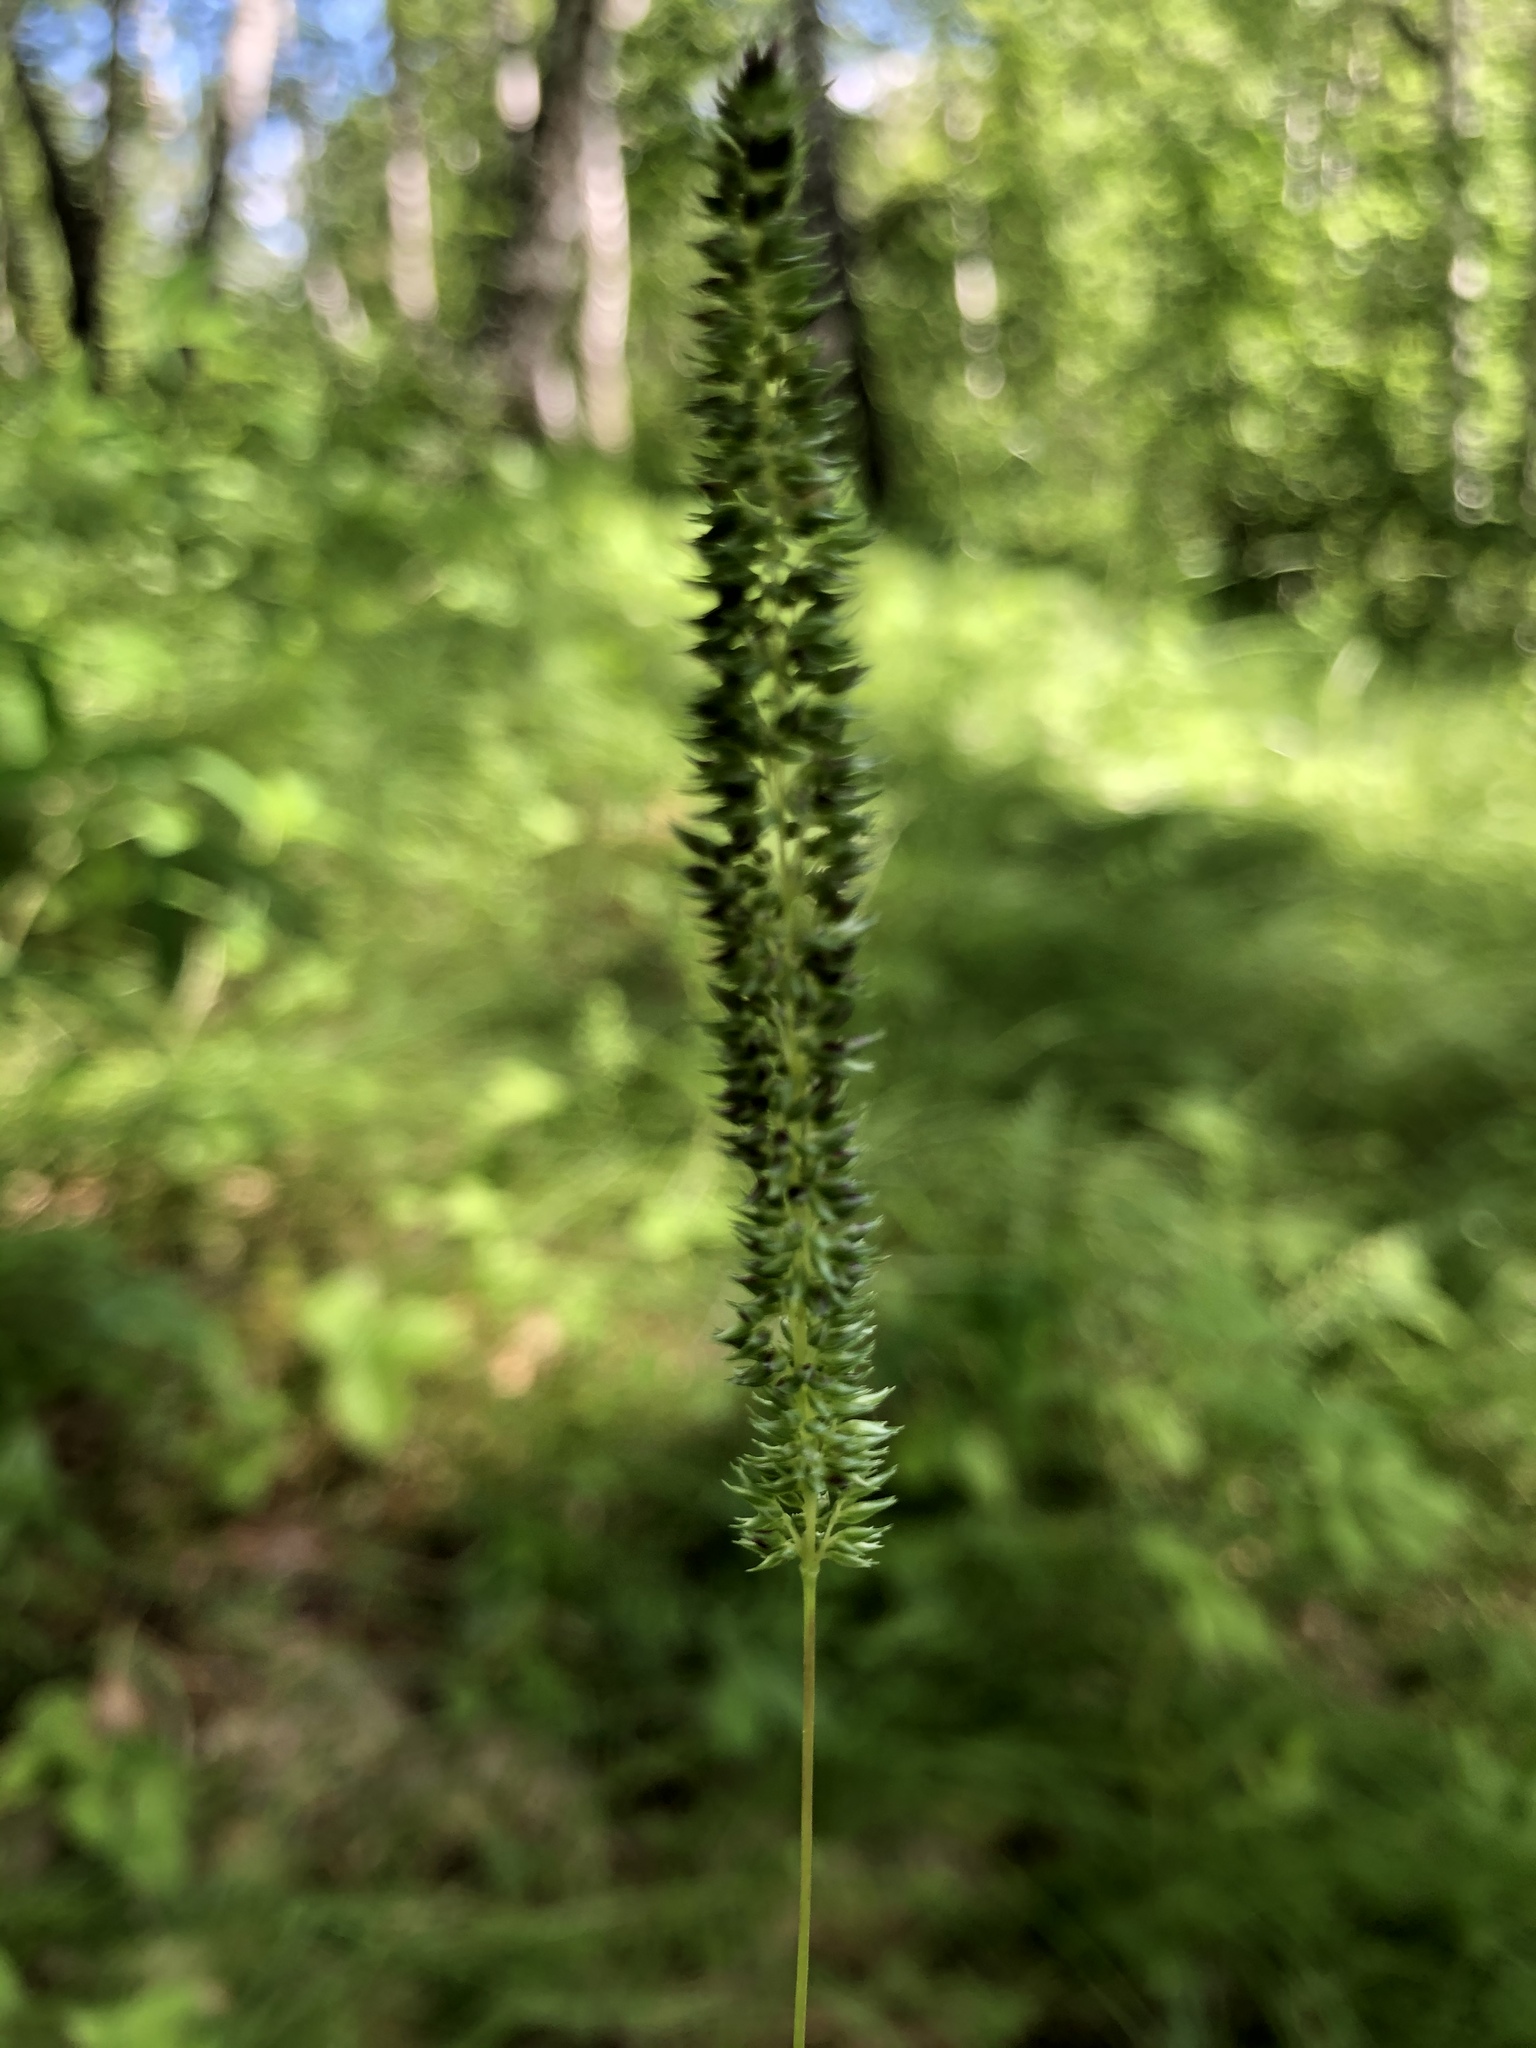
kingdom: Plantae
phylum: Tracheophyta
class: Liliopsida
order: Poales
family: Poaceae
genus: Phleum
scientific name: Phleum phleoides
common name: Purple-stem cat's-tail
